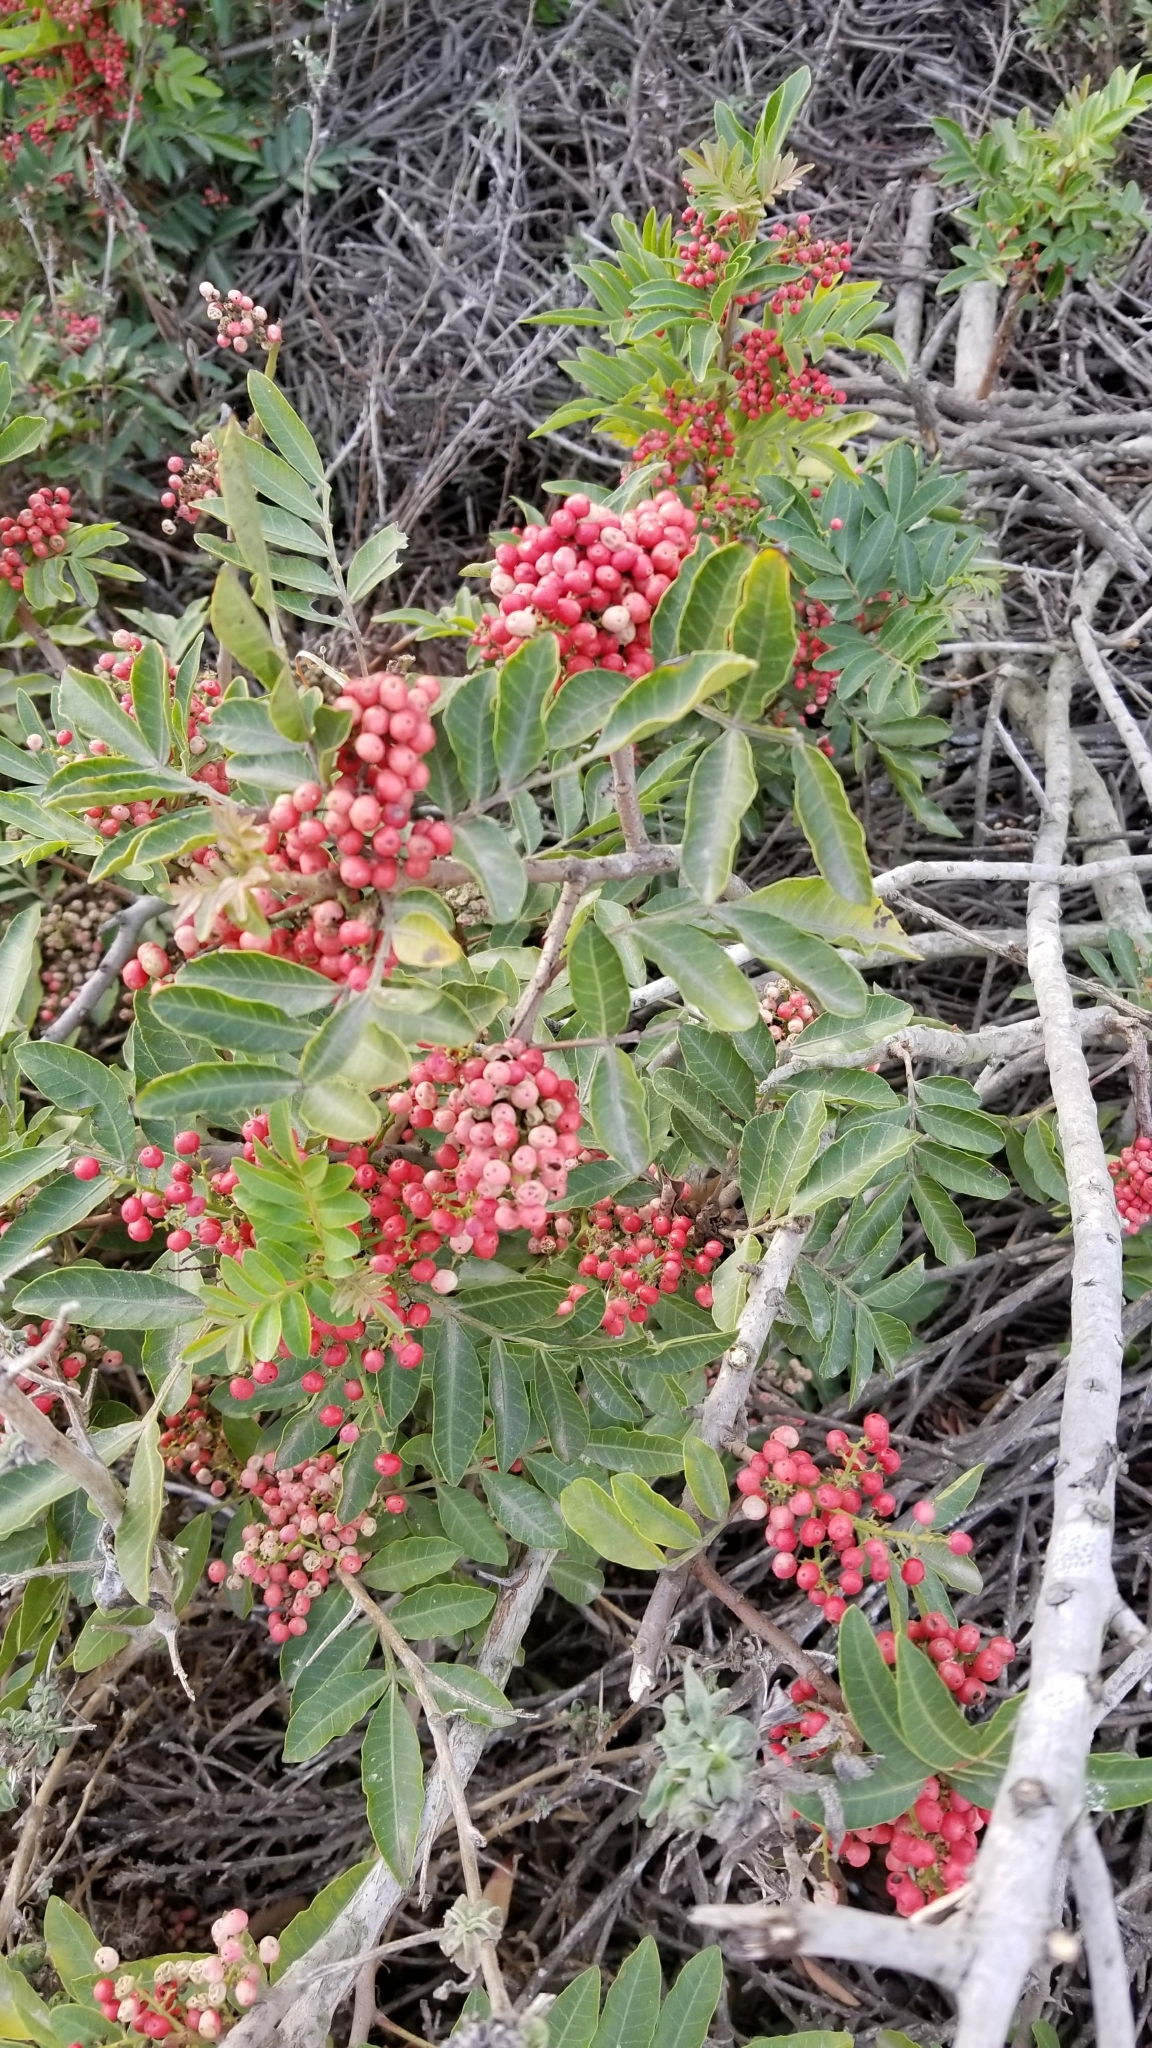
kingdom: Plantae
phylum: Tracheophyta
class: Magnoliopsida
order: Sapindales
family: Anacardiaceae
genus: Schinus
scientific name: Schinus terebinthifolia
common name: Brazilian peppertree
